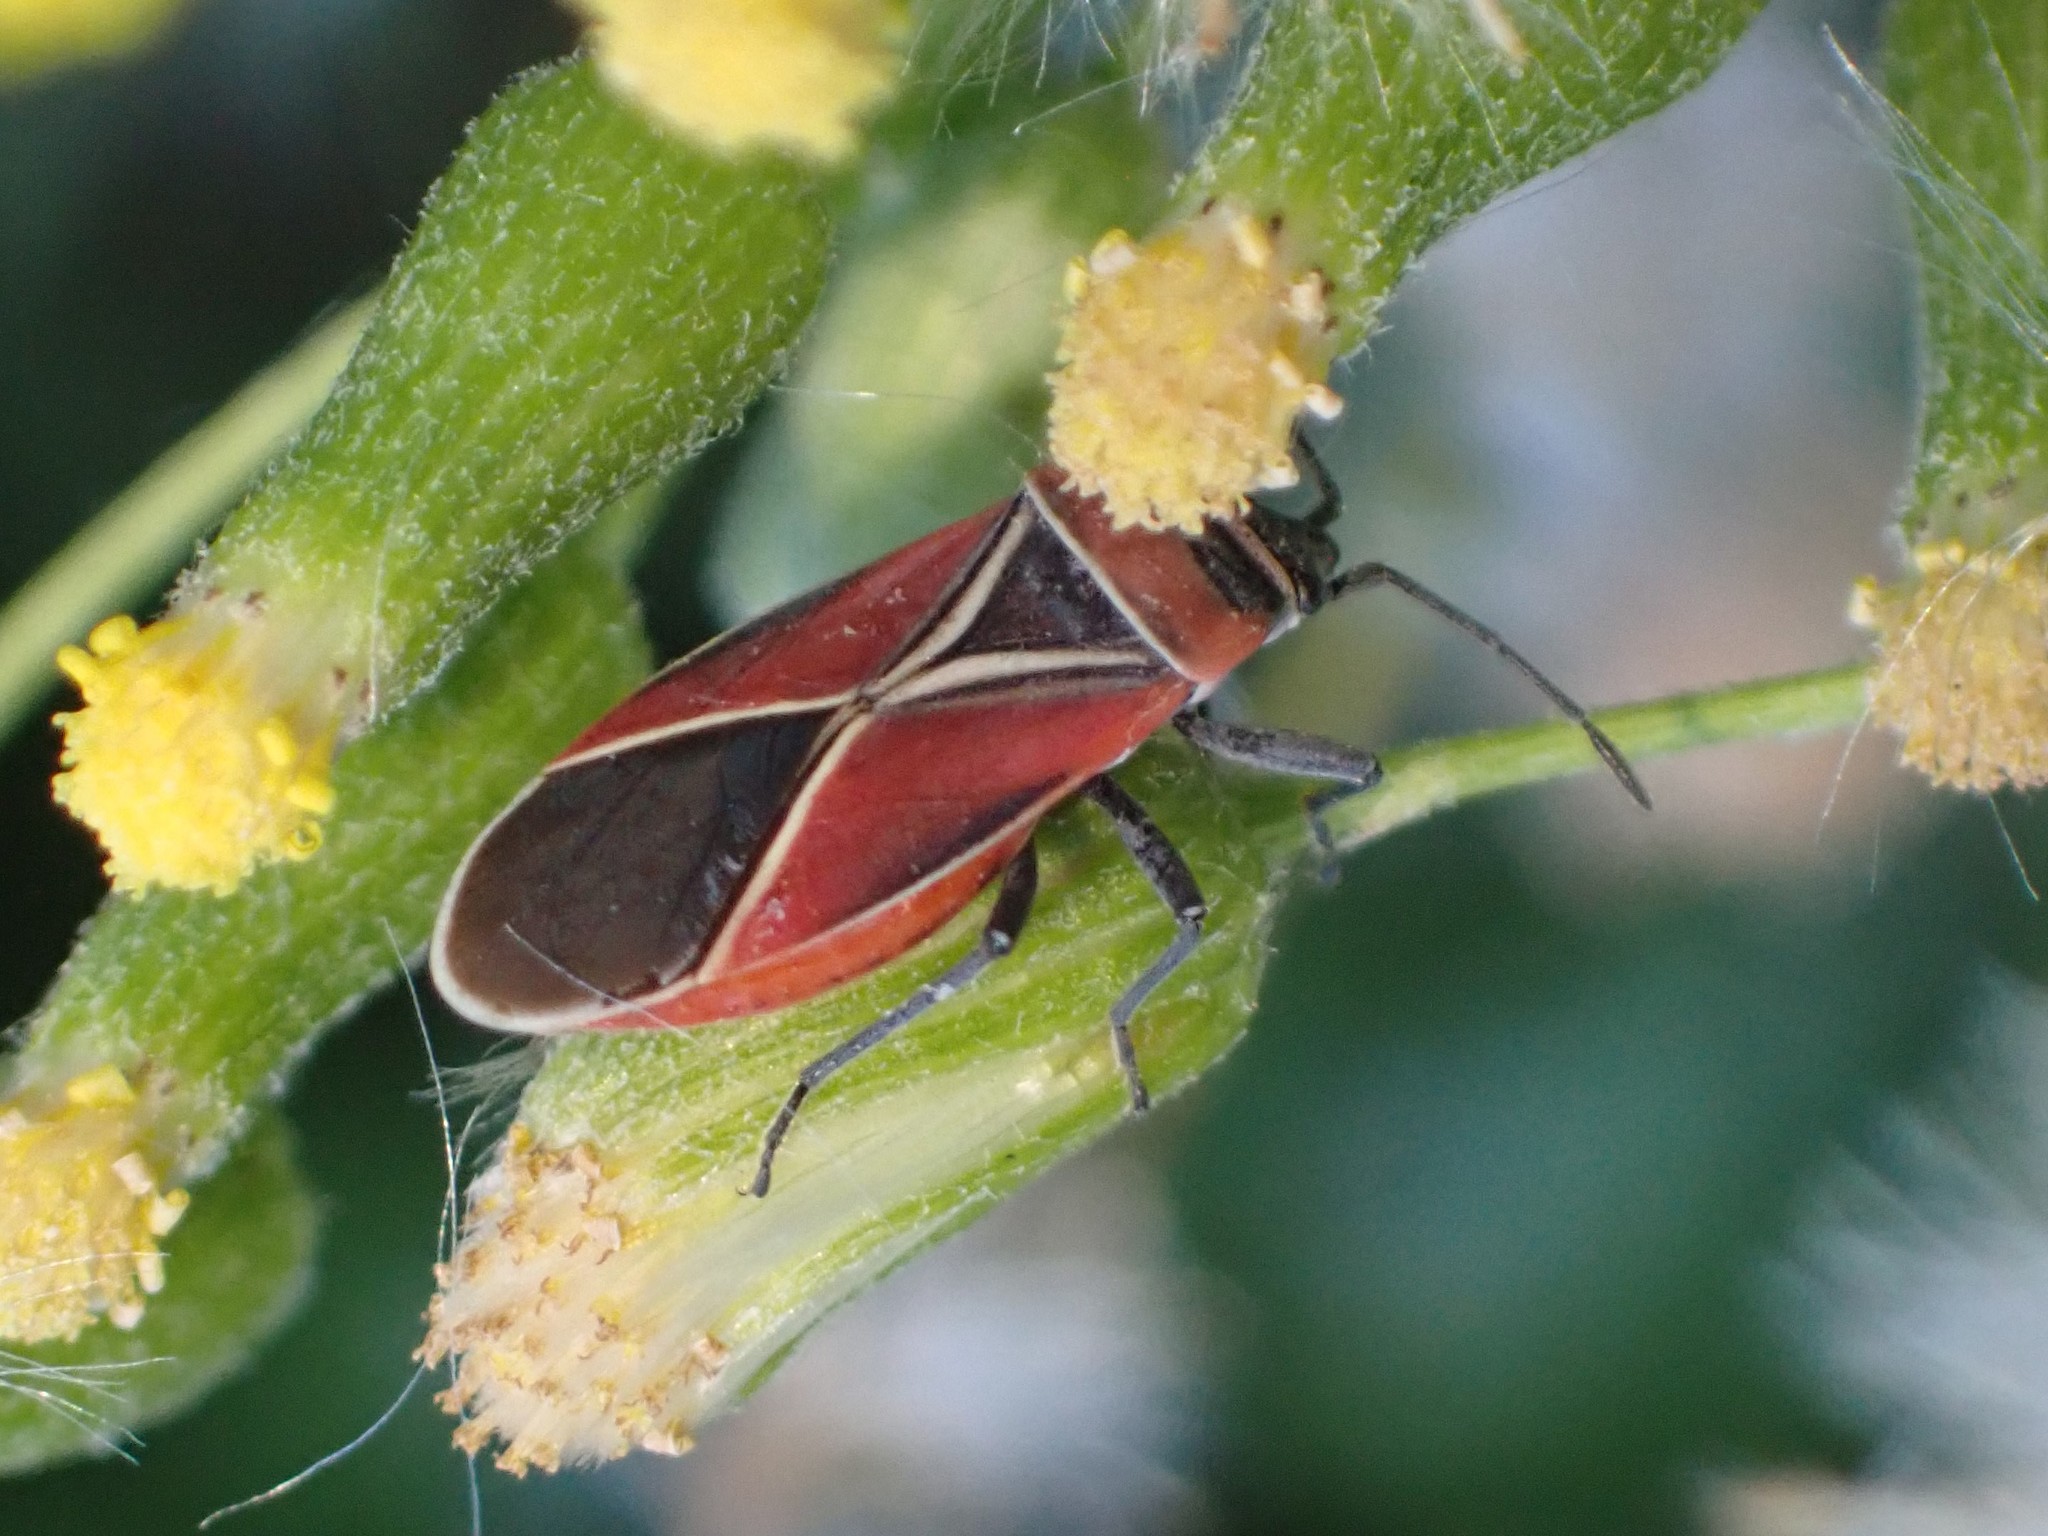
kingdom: Animalia
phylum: Arthropoda
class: Insecta
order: Hemiptera
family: Lygaeidae
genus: Neacoryphus
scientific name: Neacoryphus bicrucis
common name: Lygaeid bug
